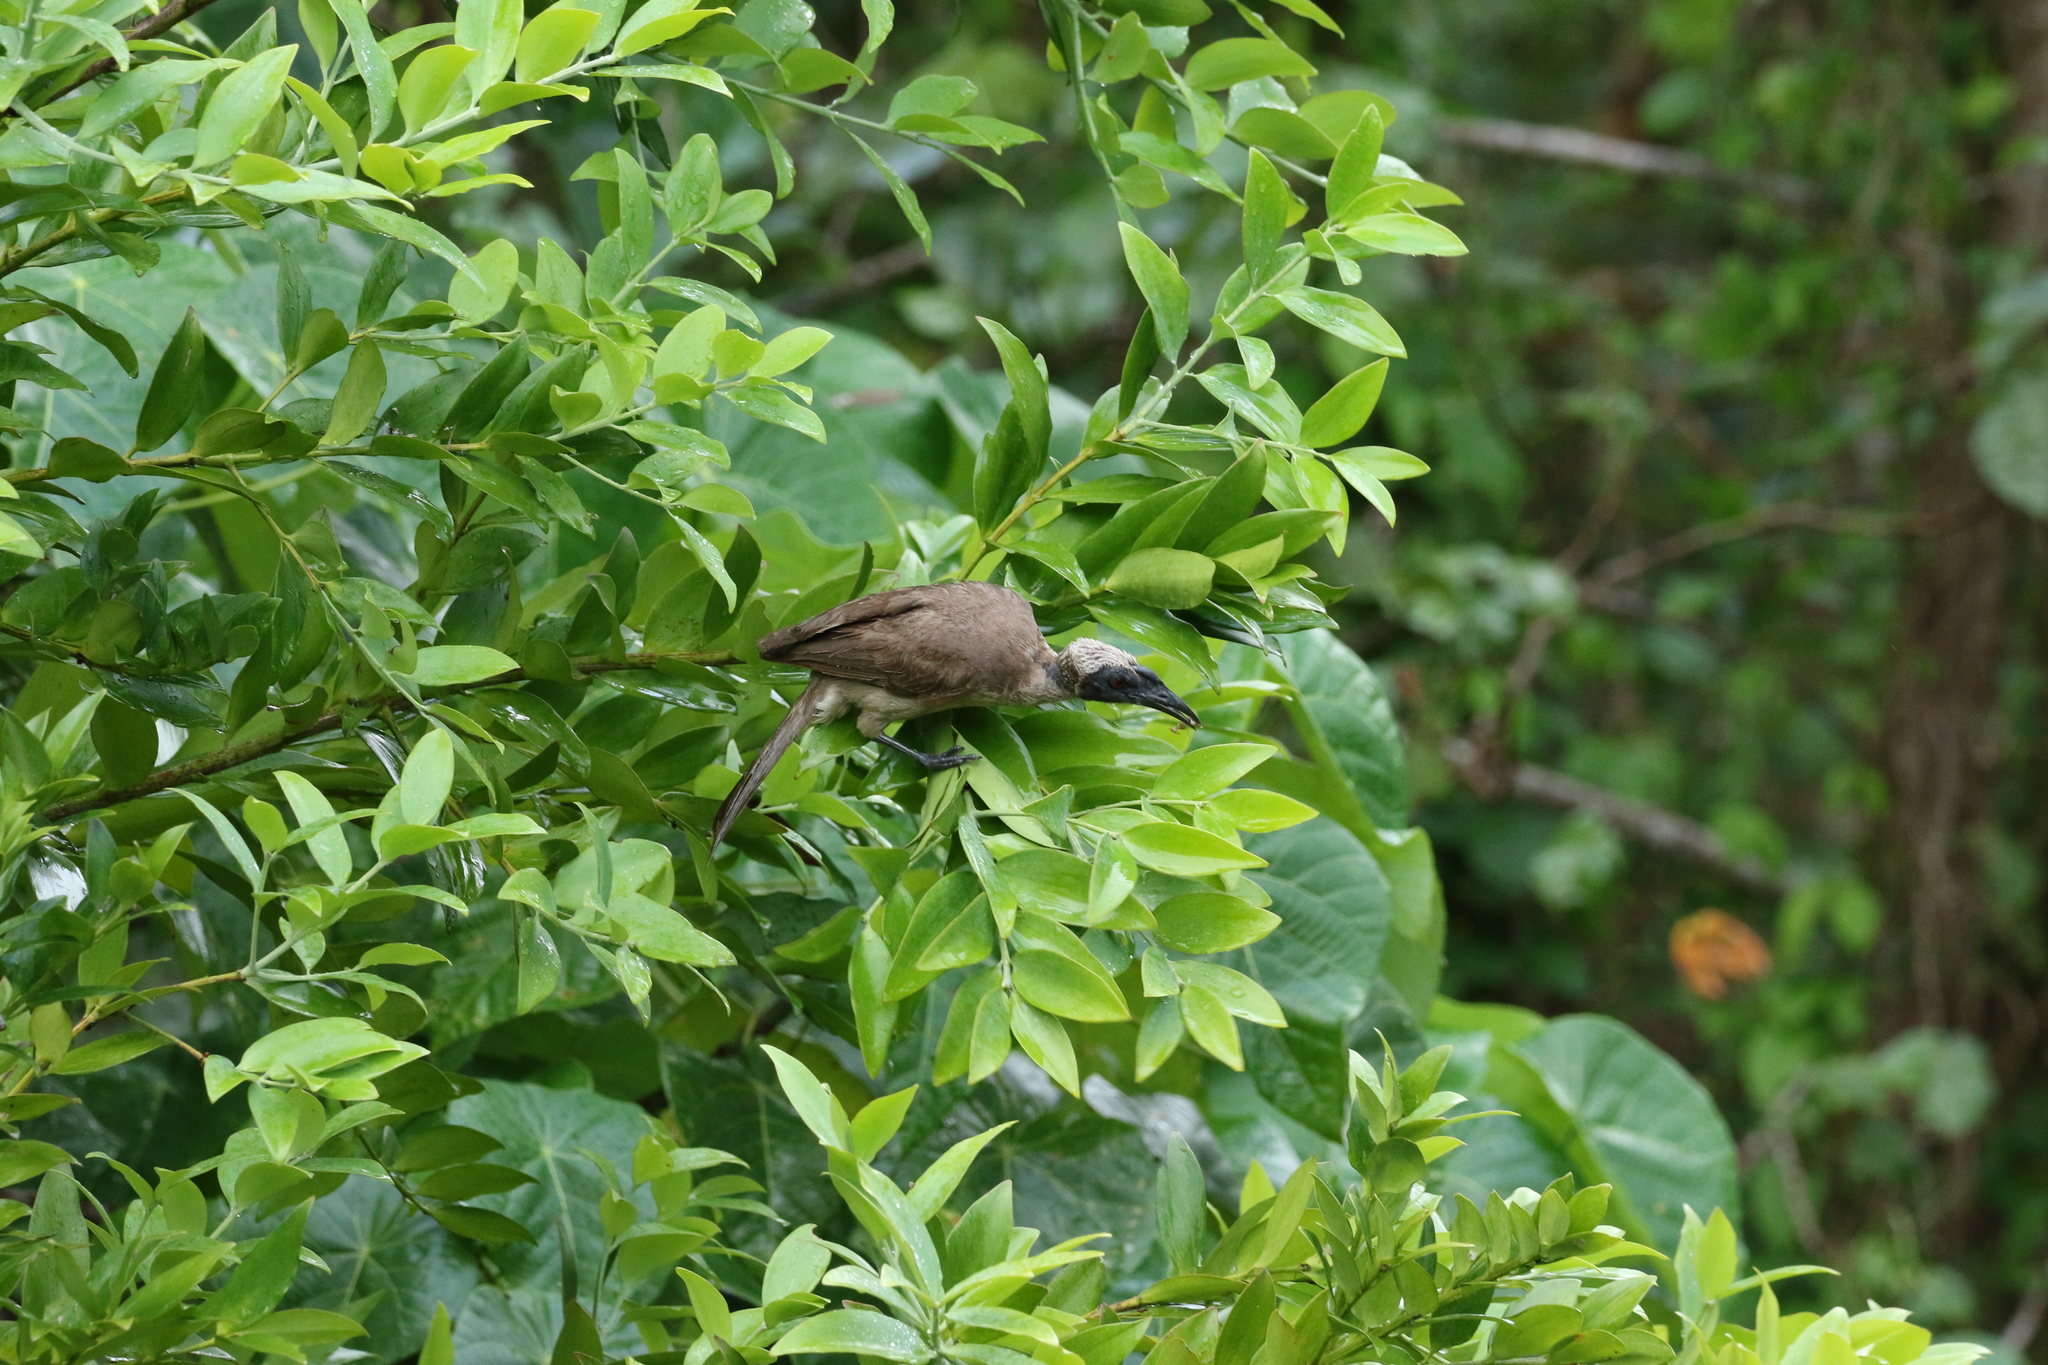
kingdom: Animalia
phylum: Chordata
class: Aves
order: Passeriformes
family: Meliphagidae
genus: Philemon
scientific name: Philemon buceroides
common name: Helmeted friarbird
